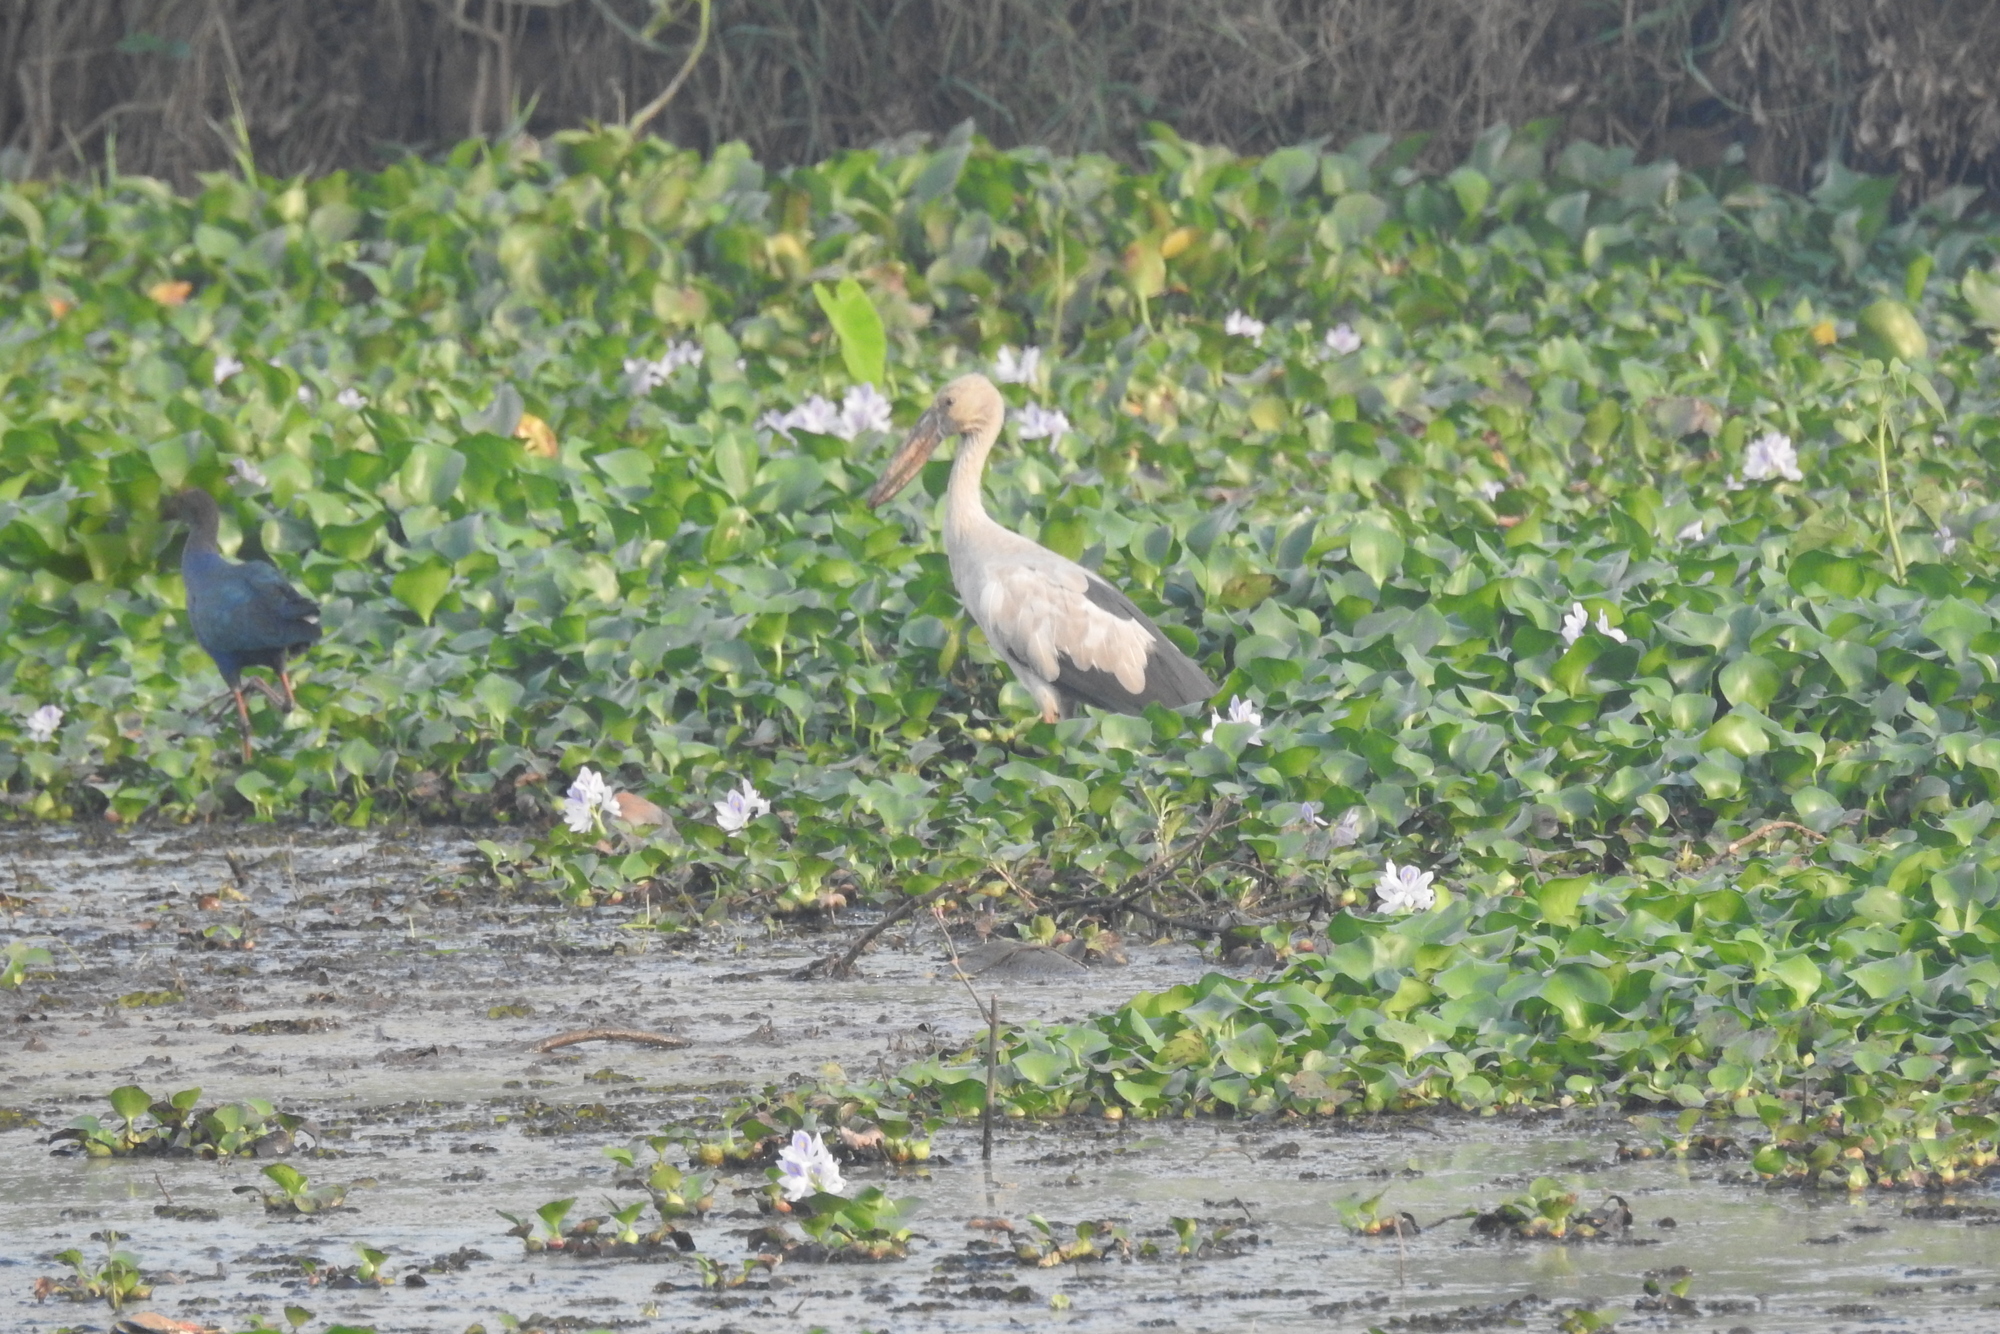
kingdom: Animalia
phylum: Chordata
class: Aves
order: Ciconiiformes
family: Ciconiidae
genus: Anastomus
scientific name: Anastomus oscitans
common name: Asian openbill
